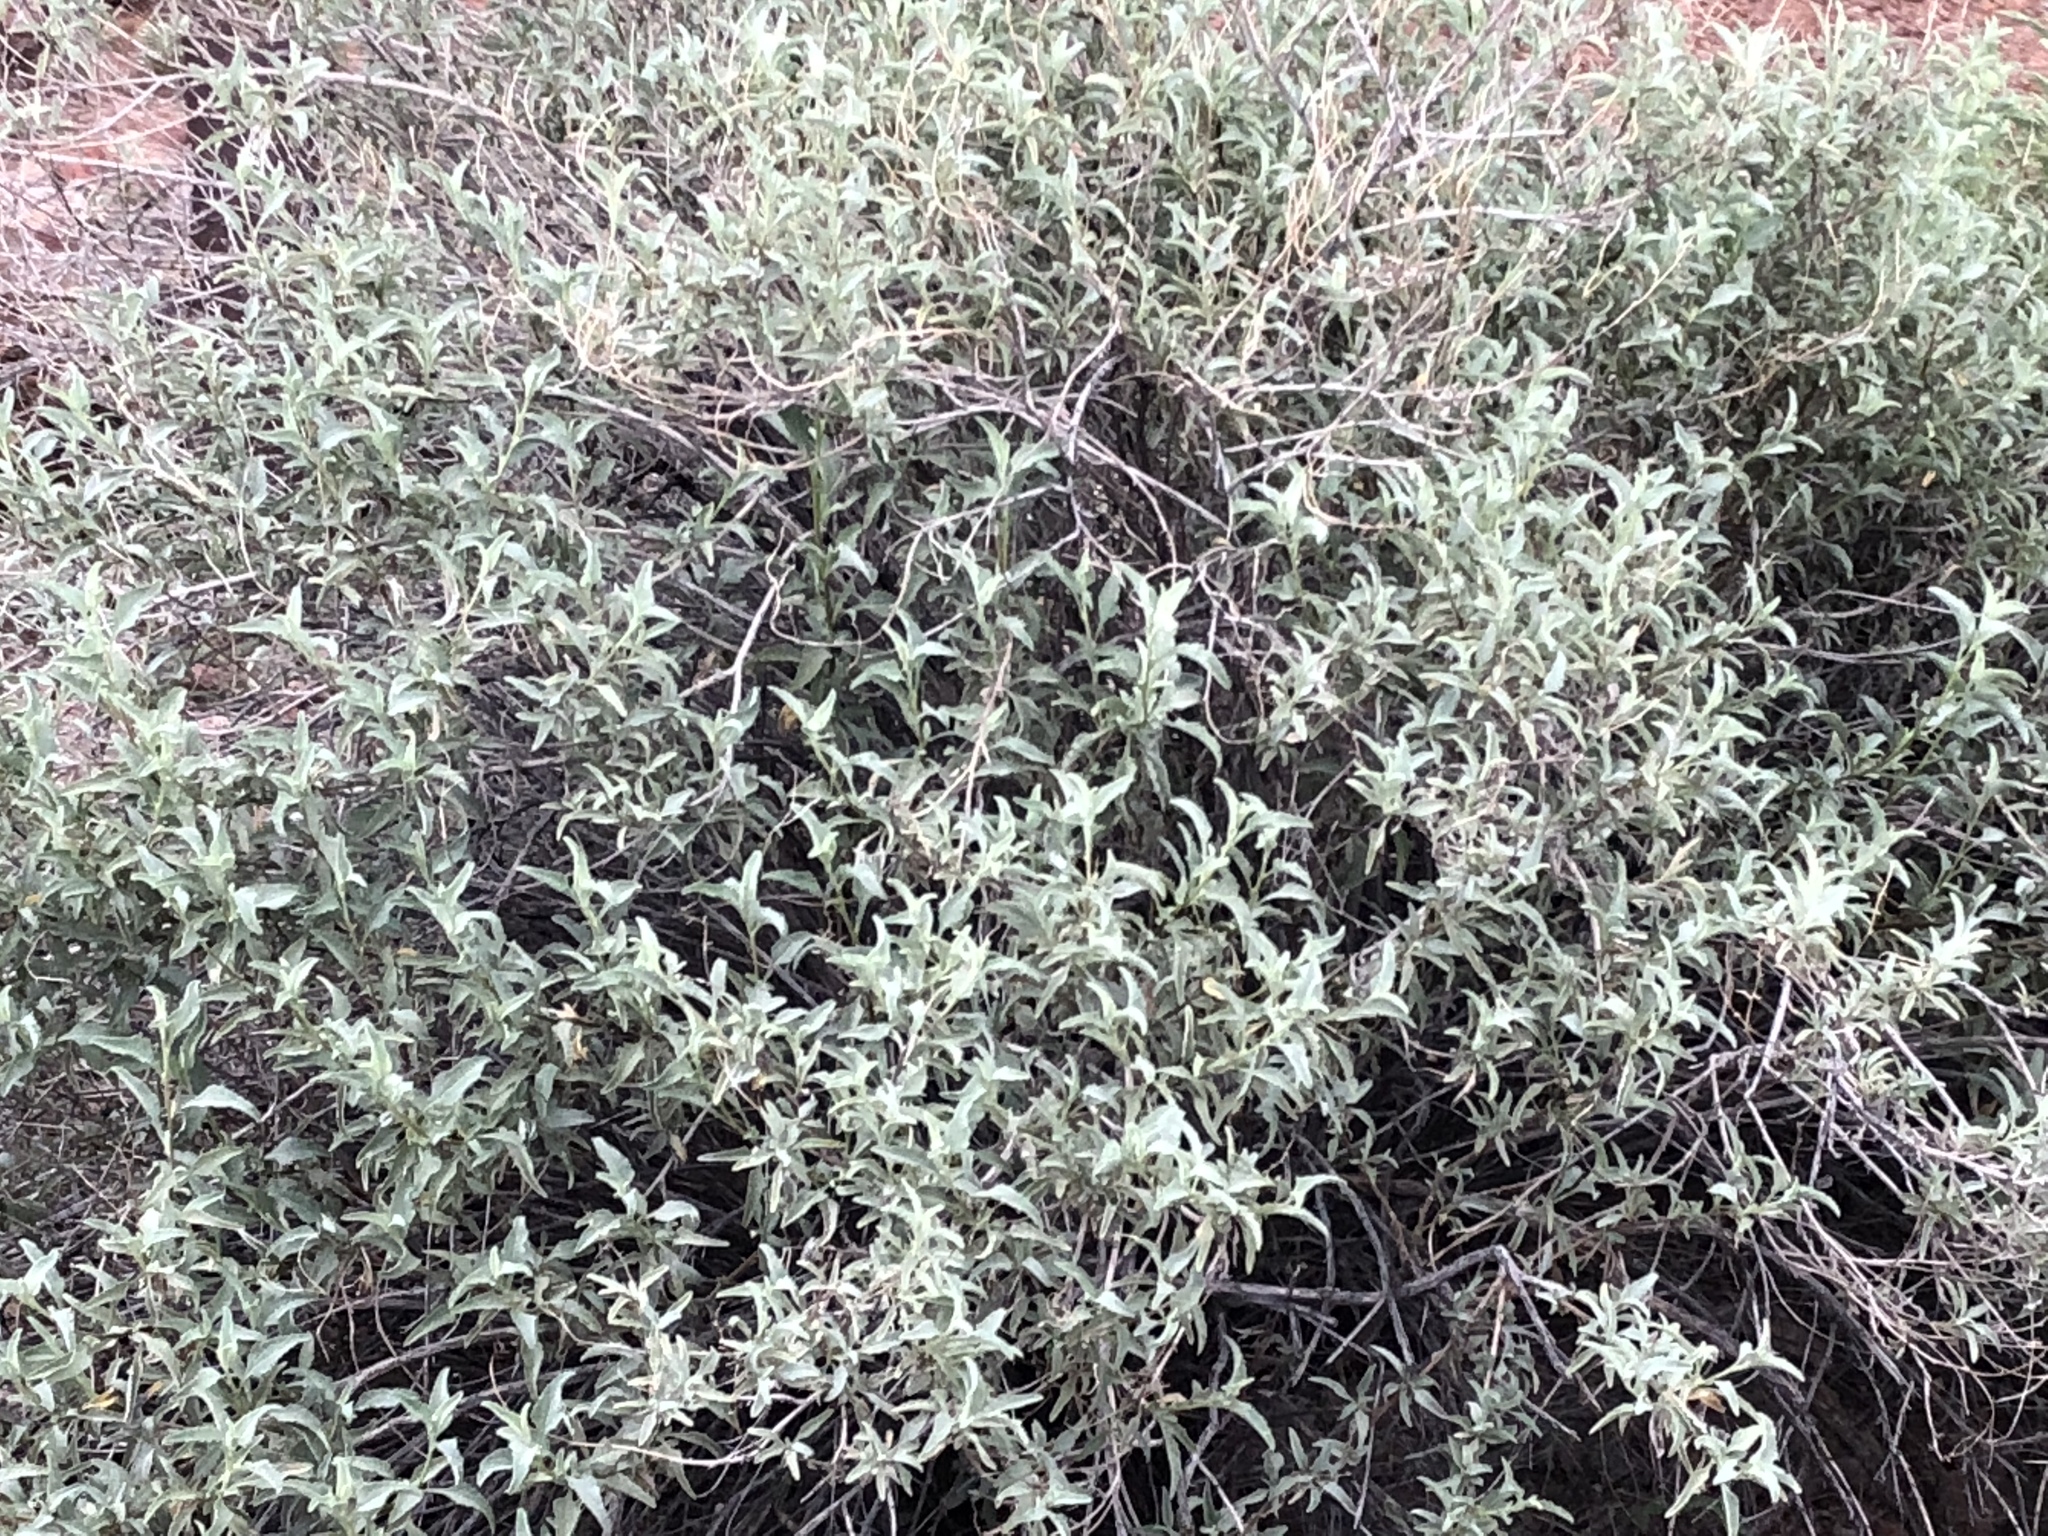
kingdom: Plantae
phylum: Tracheophyta
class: Magnoliopsida
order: Asterales
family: Asteraceae
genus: Ambrosia
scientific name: Ambrosia deltoidea
